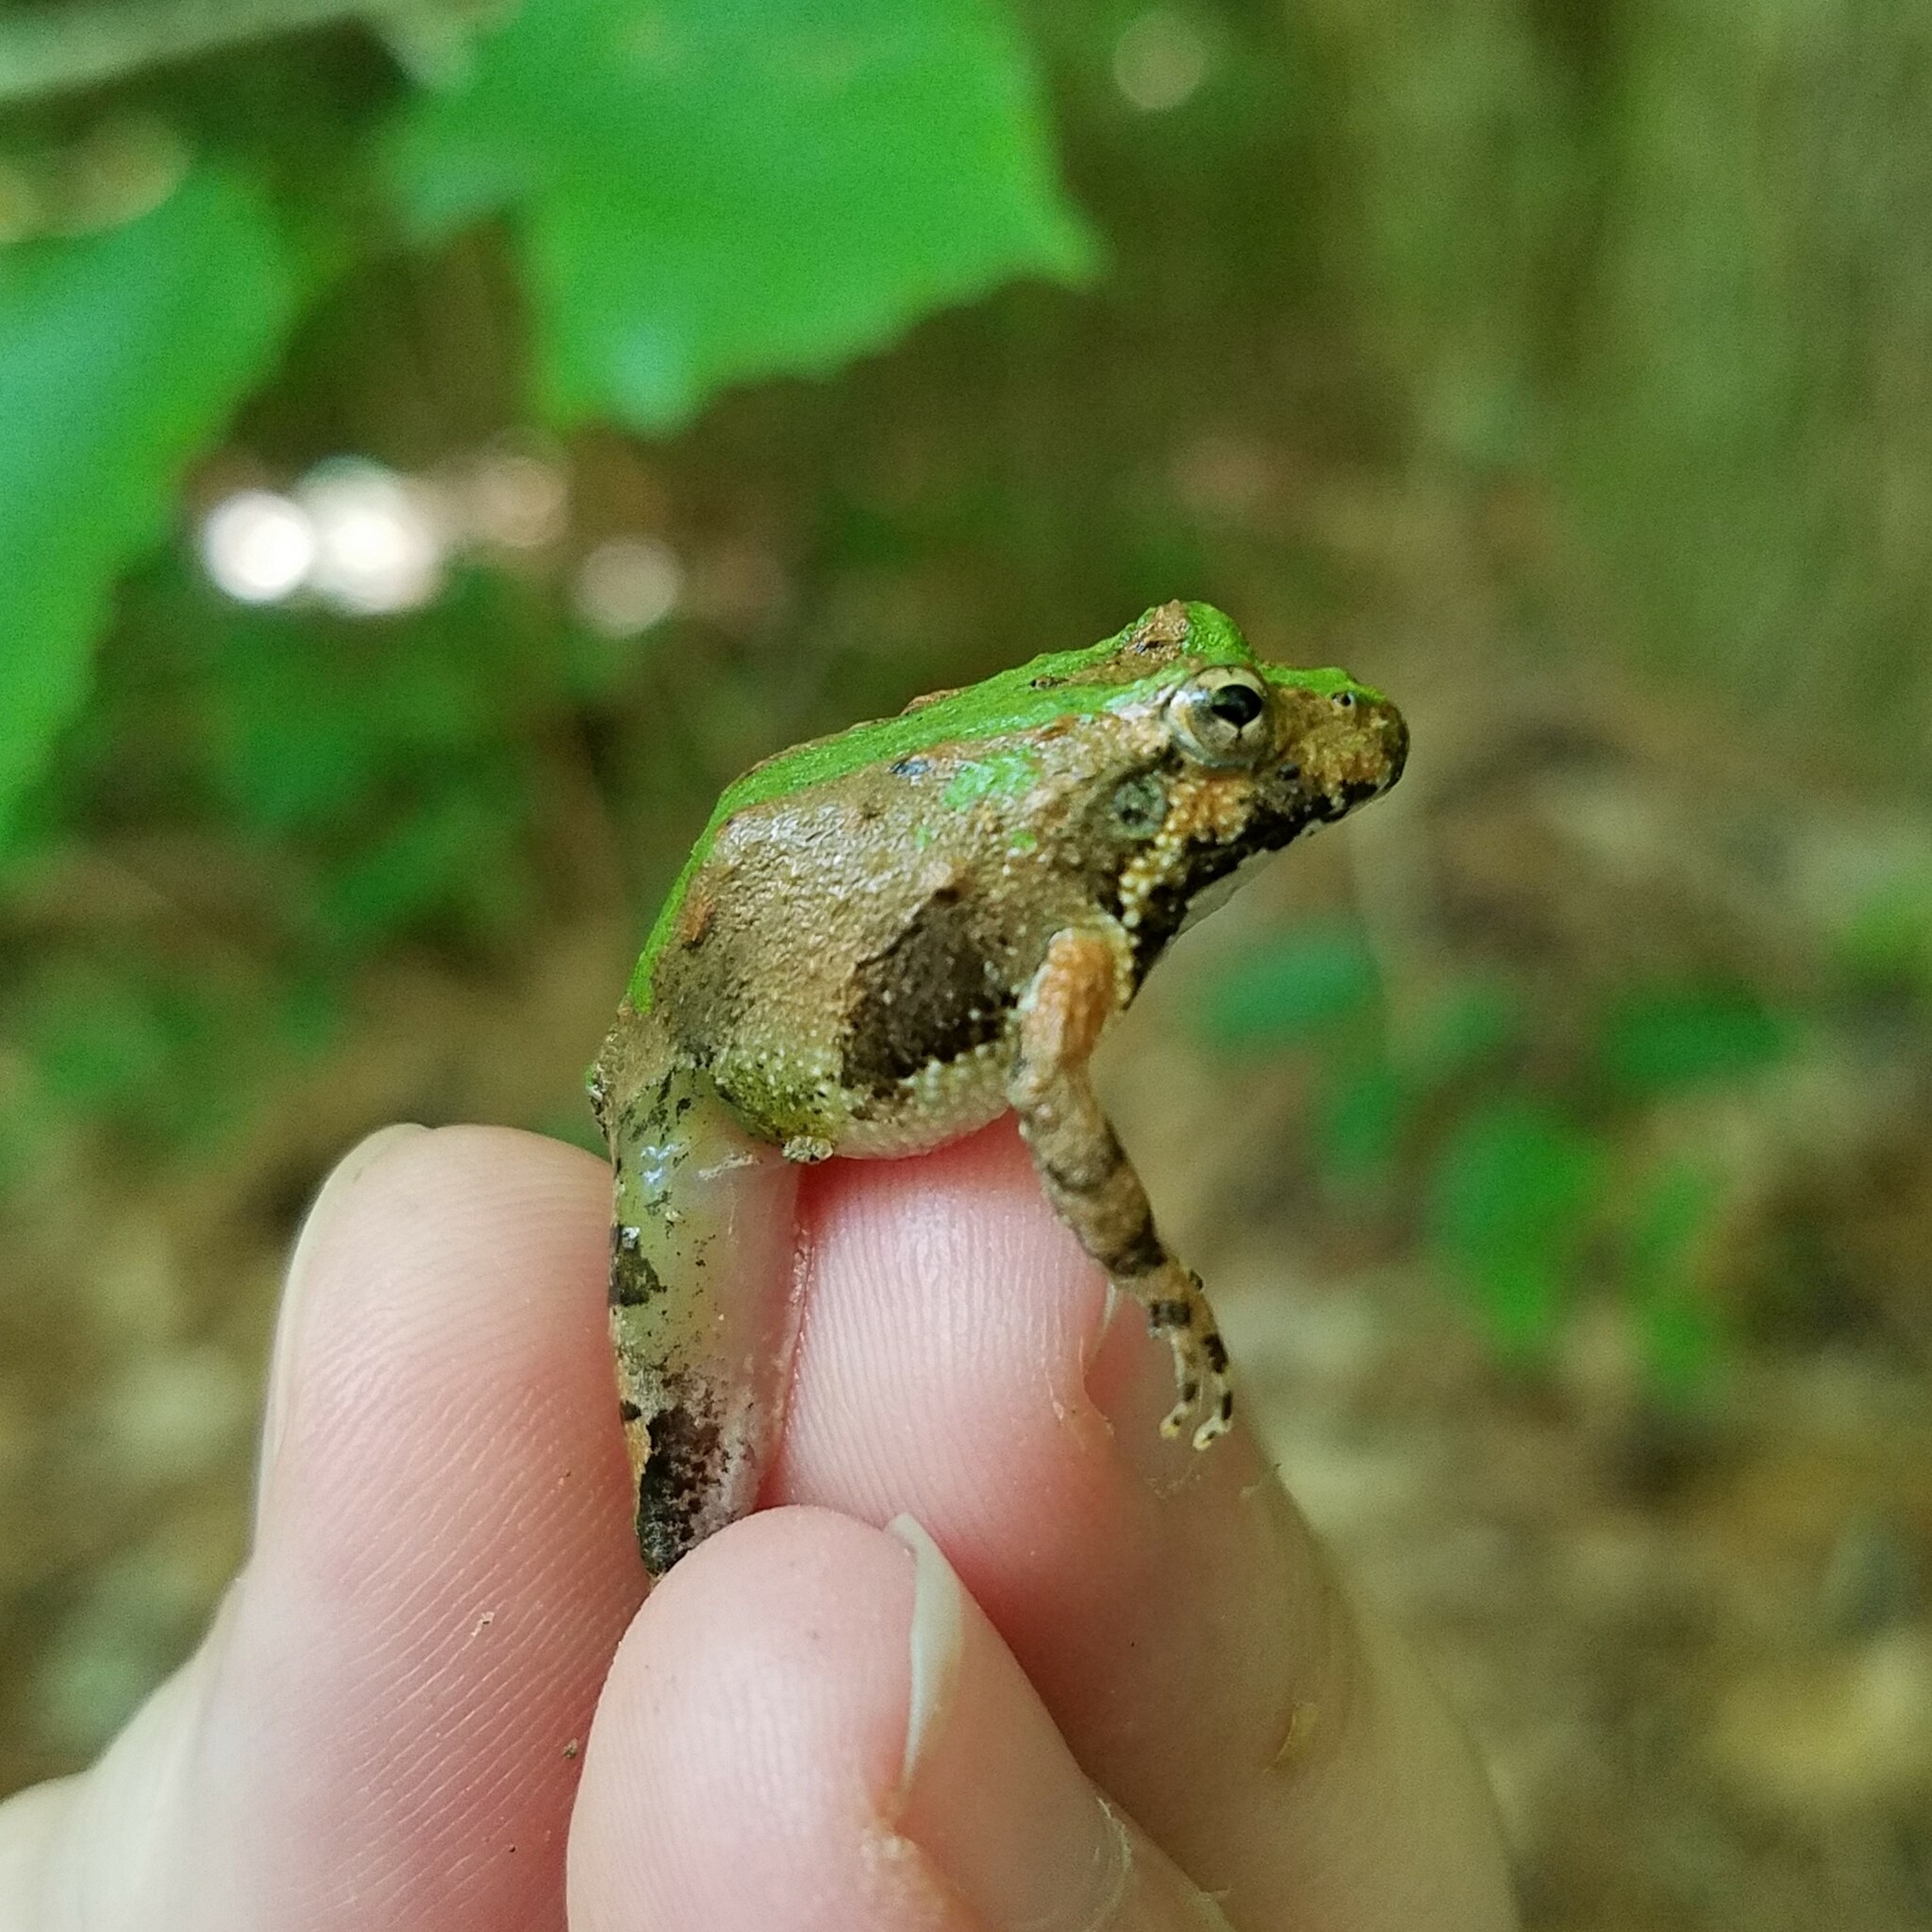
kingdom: Animalia
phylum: Chordata
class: Amphibia
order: Anura
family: Hylidae
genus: Acris
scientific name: Acris crepitans
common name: Northern cricket frog
